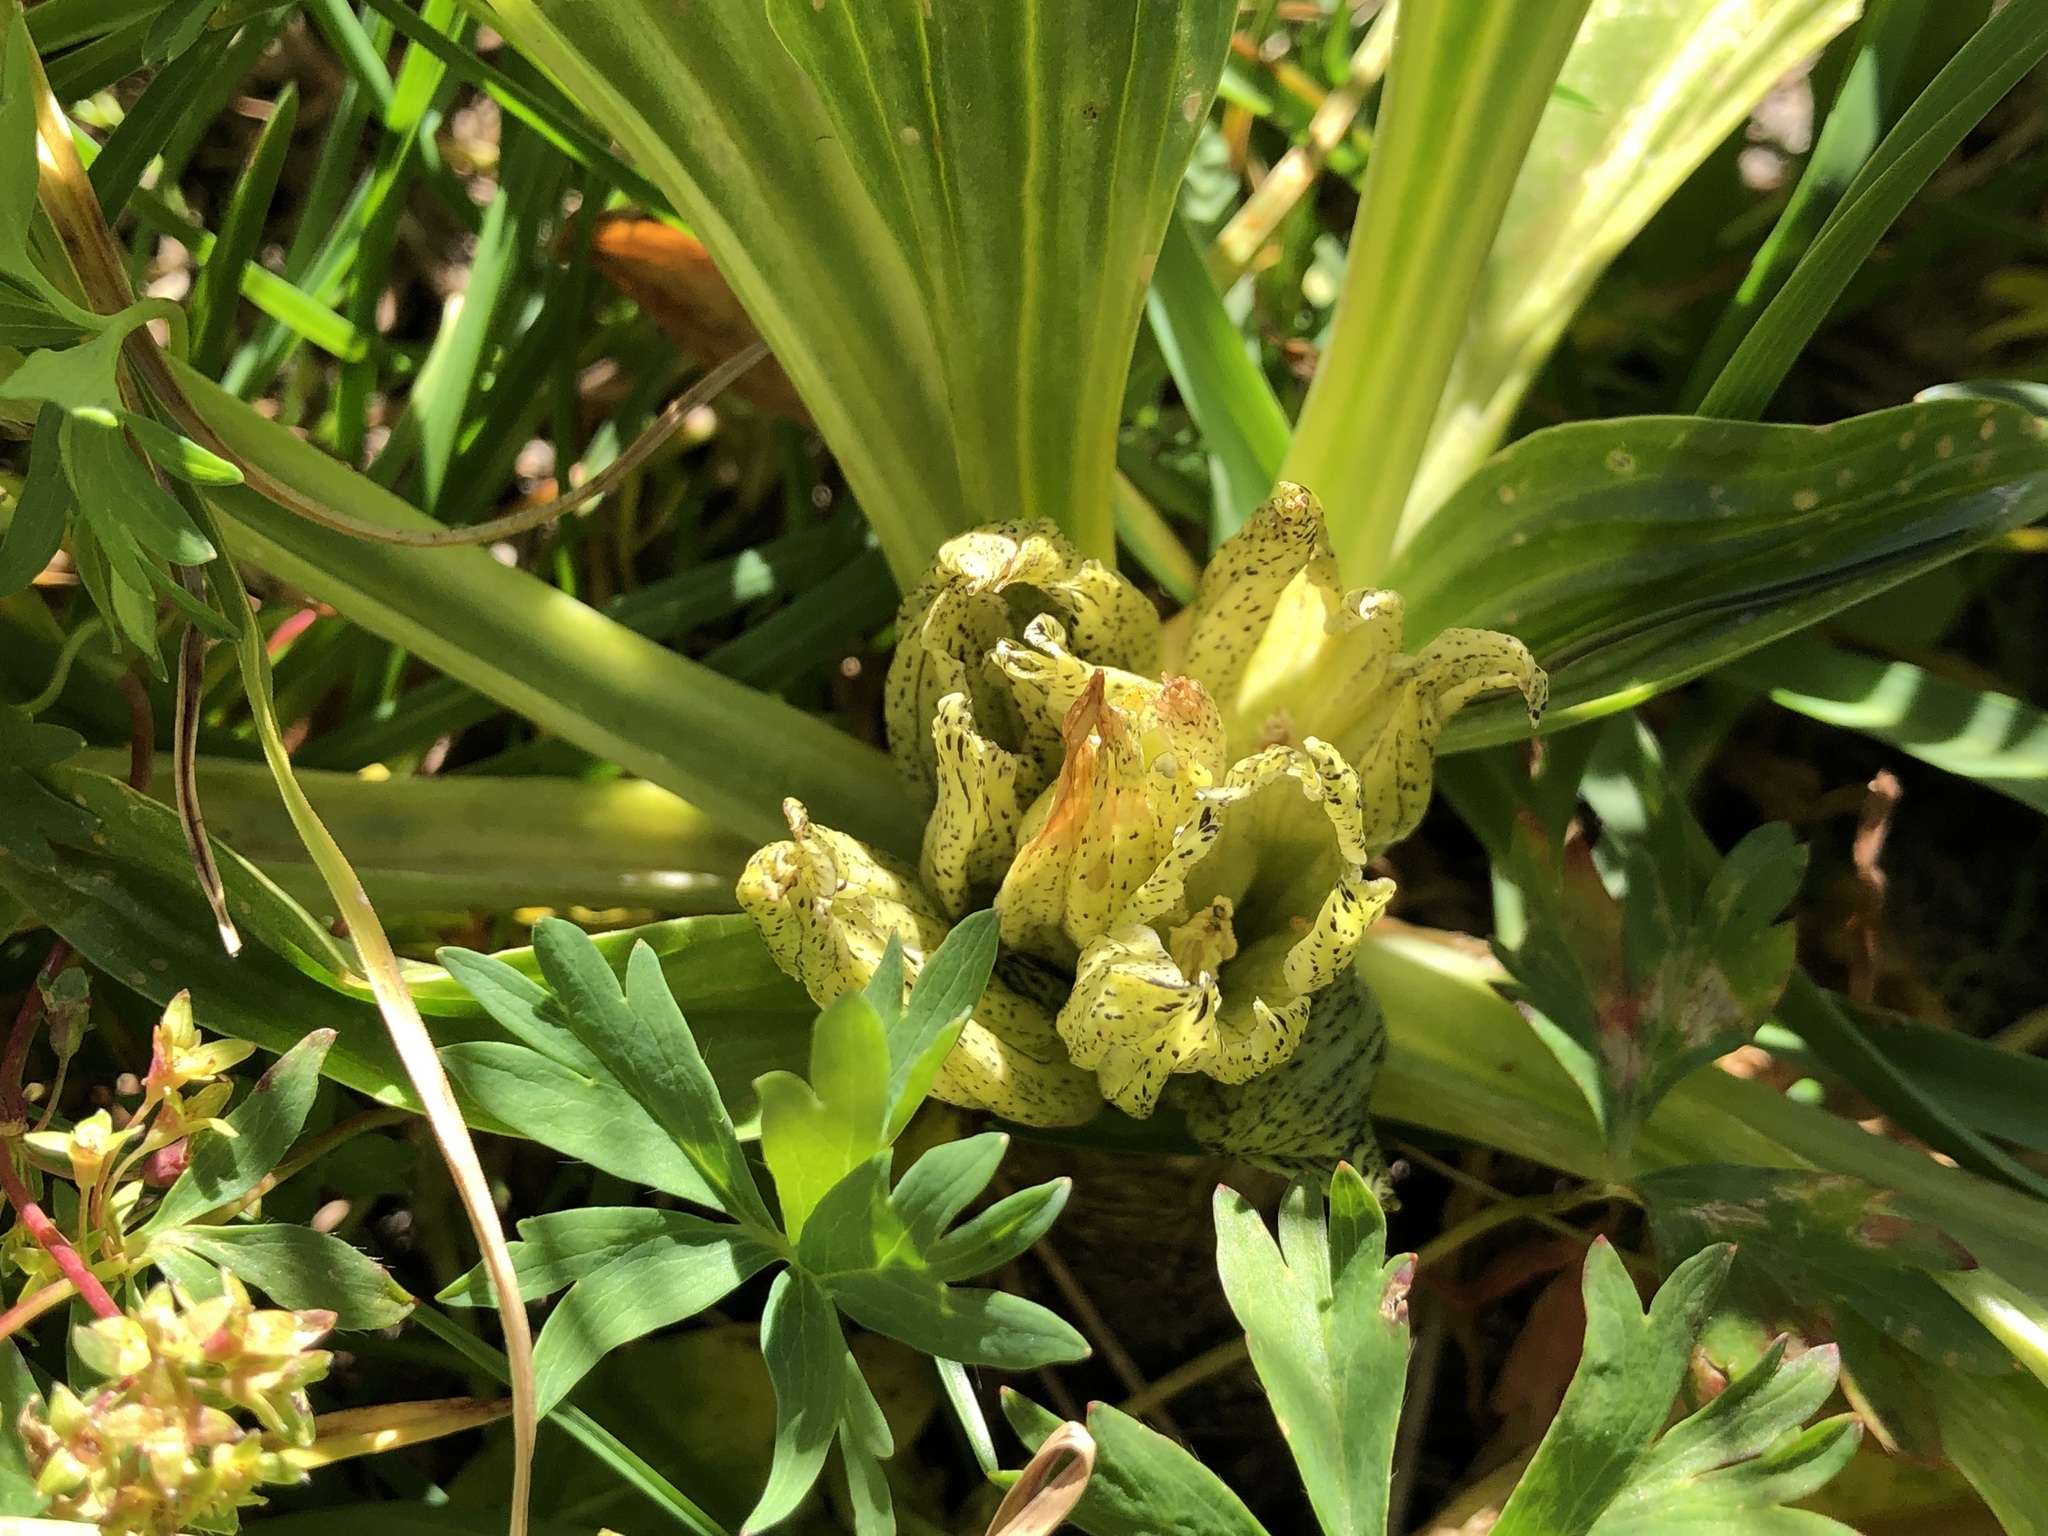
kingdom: Plantae
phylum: Tracheophyta
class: Magnoliopsida
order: Gentianales
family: Gentianaceae
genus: Gentiana
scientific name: Gentiana punctata
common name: Spotted gentian
